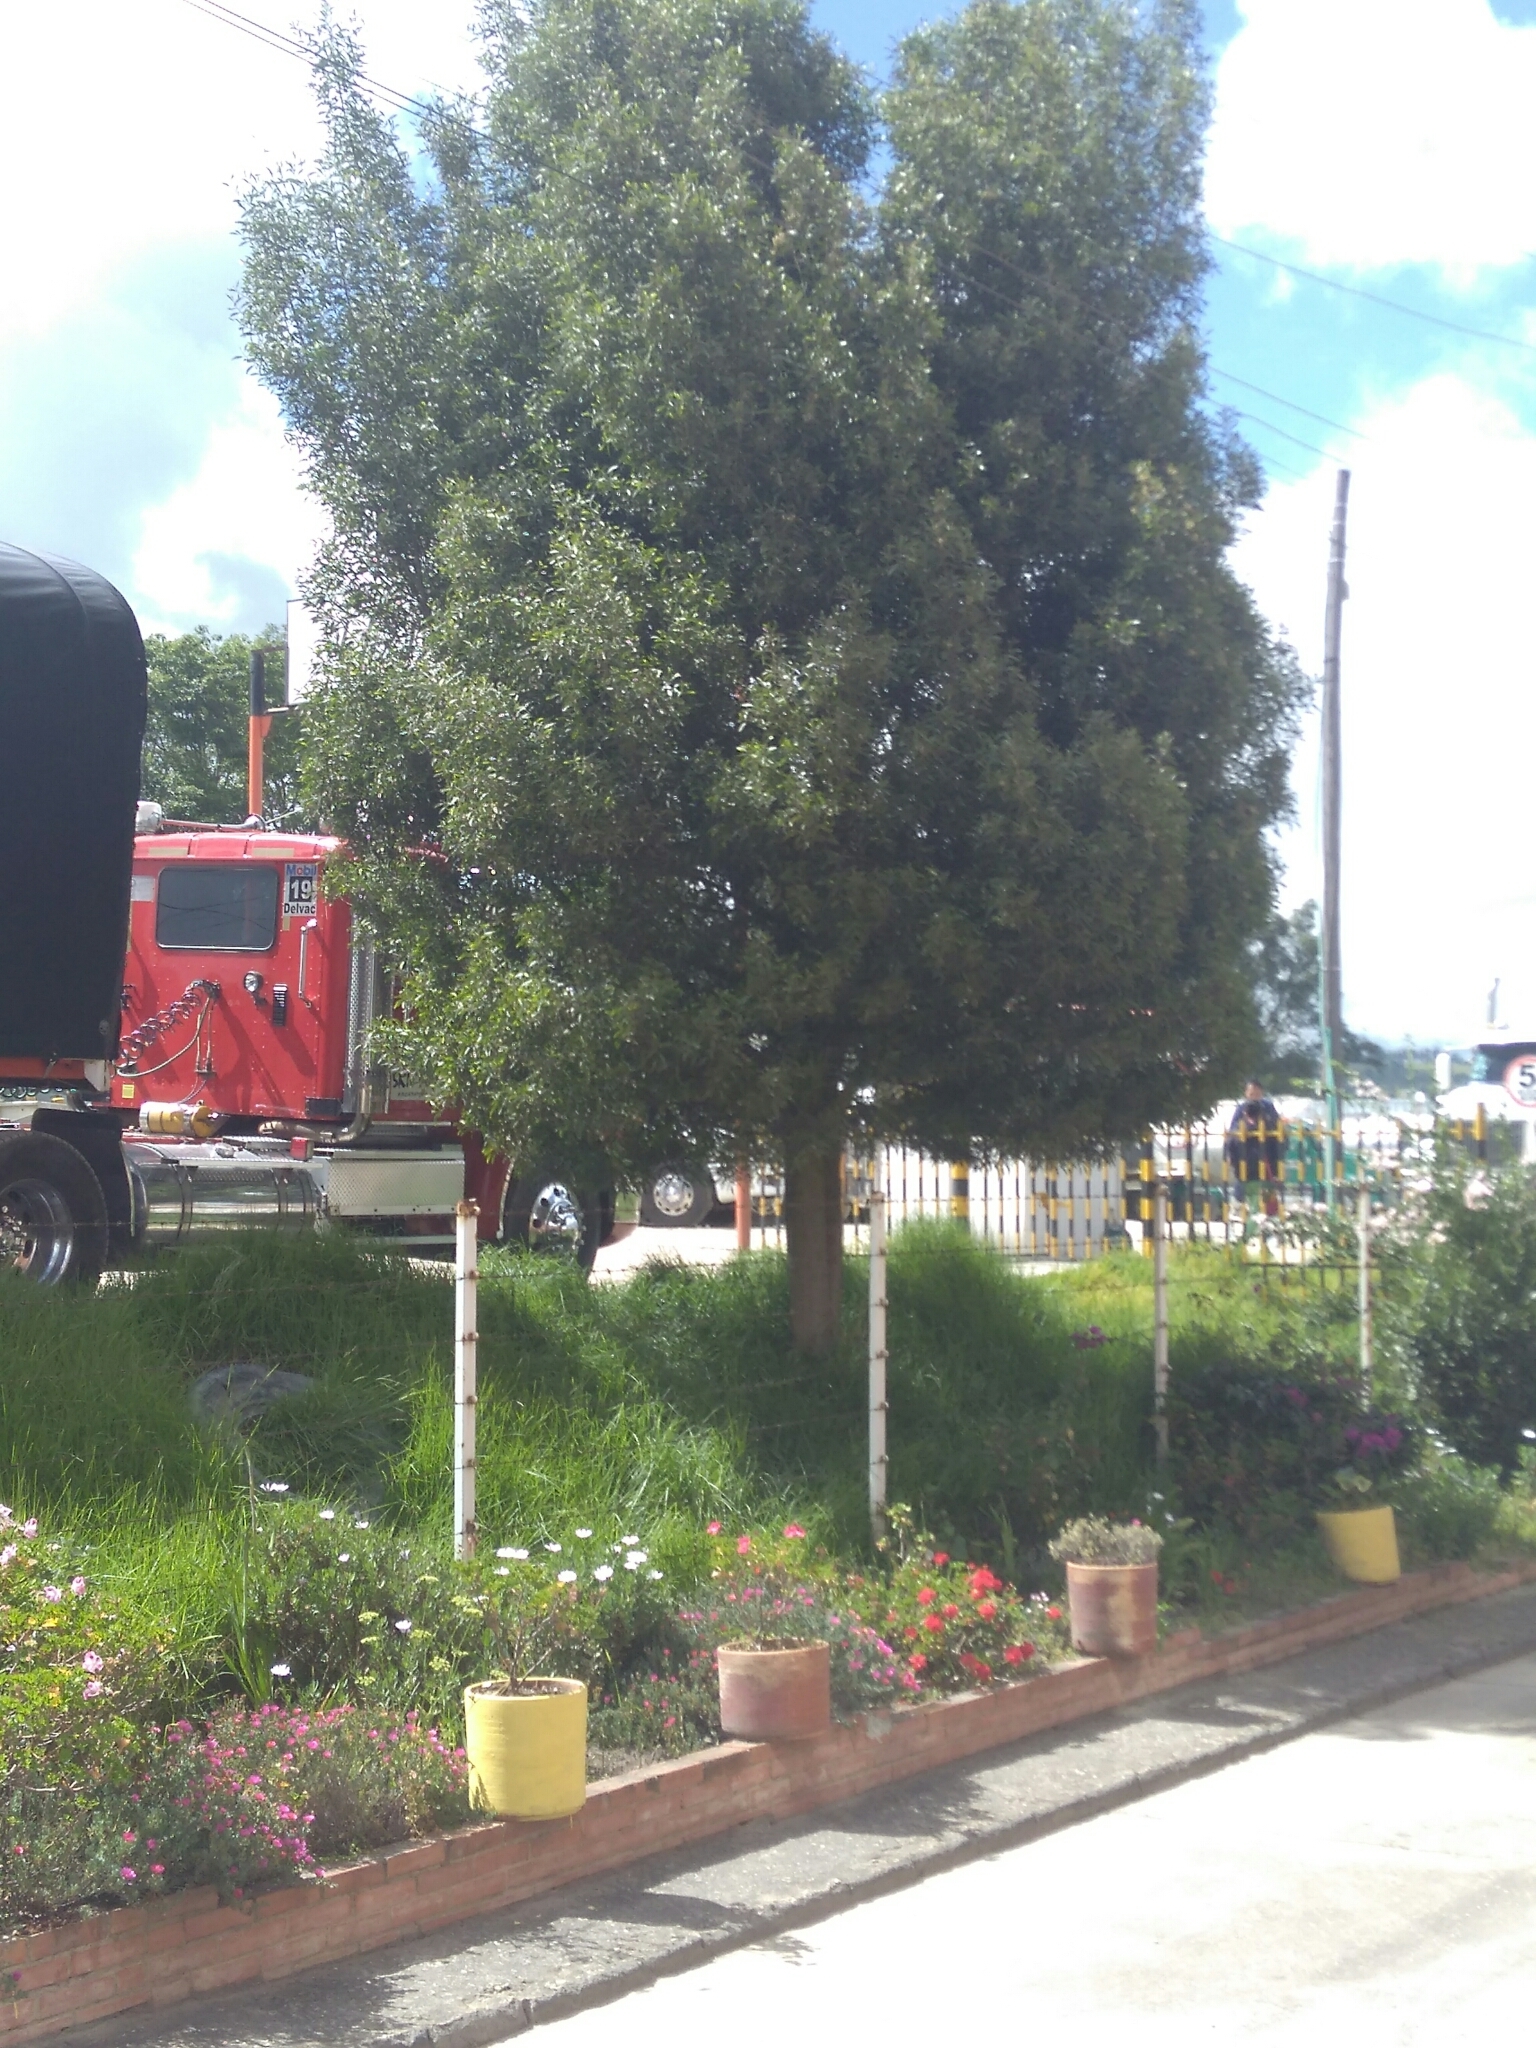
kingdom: Plantae
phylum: Tracheophyta
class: Magnoliopsida
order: Fabales
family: Fabaceae
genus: Acacia
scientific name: Acacia melanoxylon
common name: Blackwood
